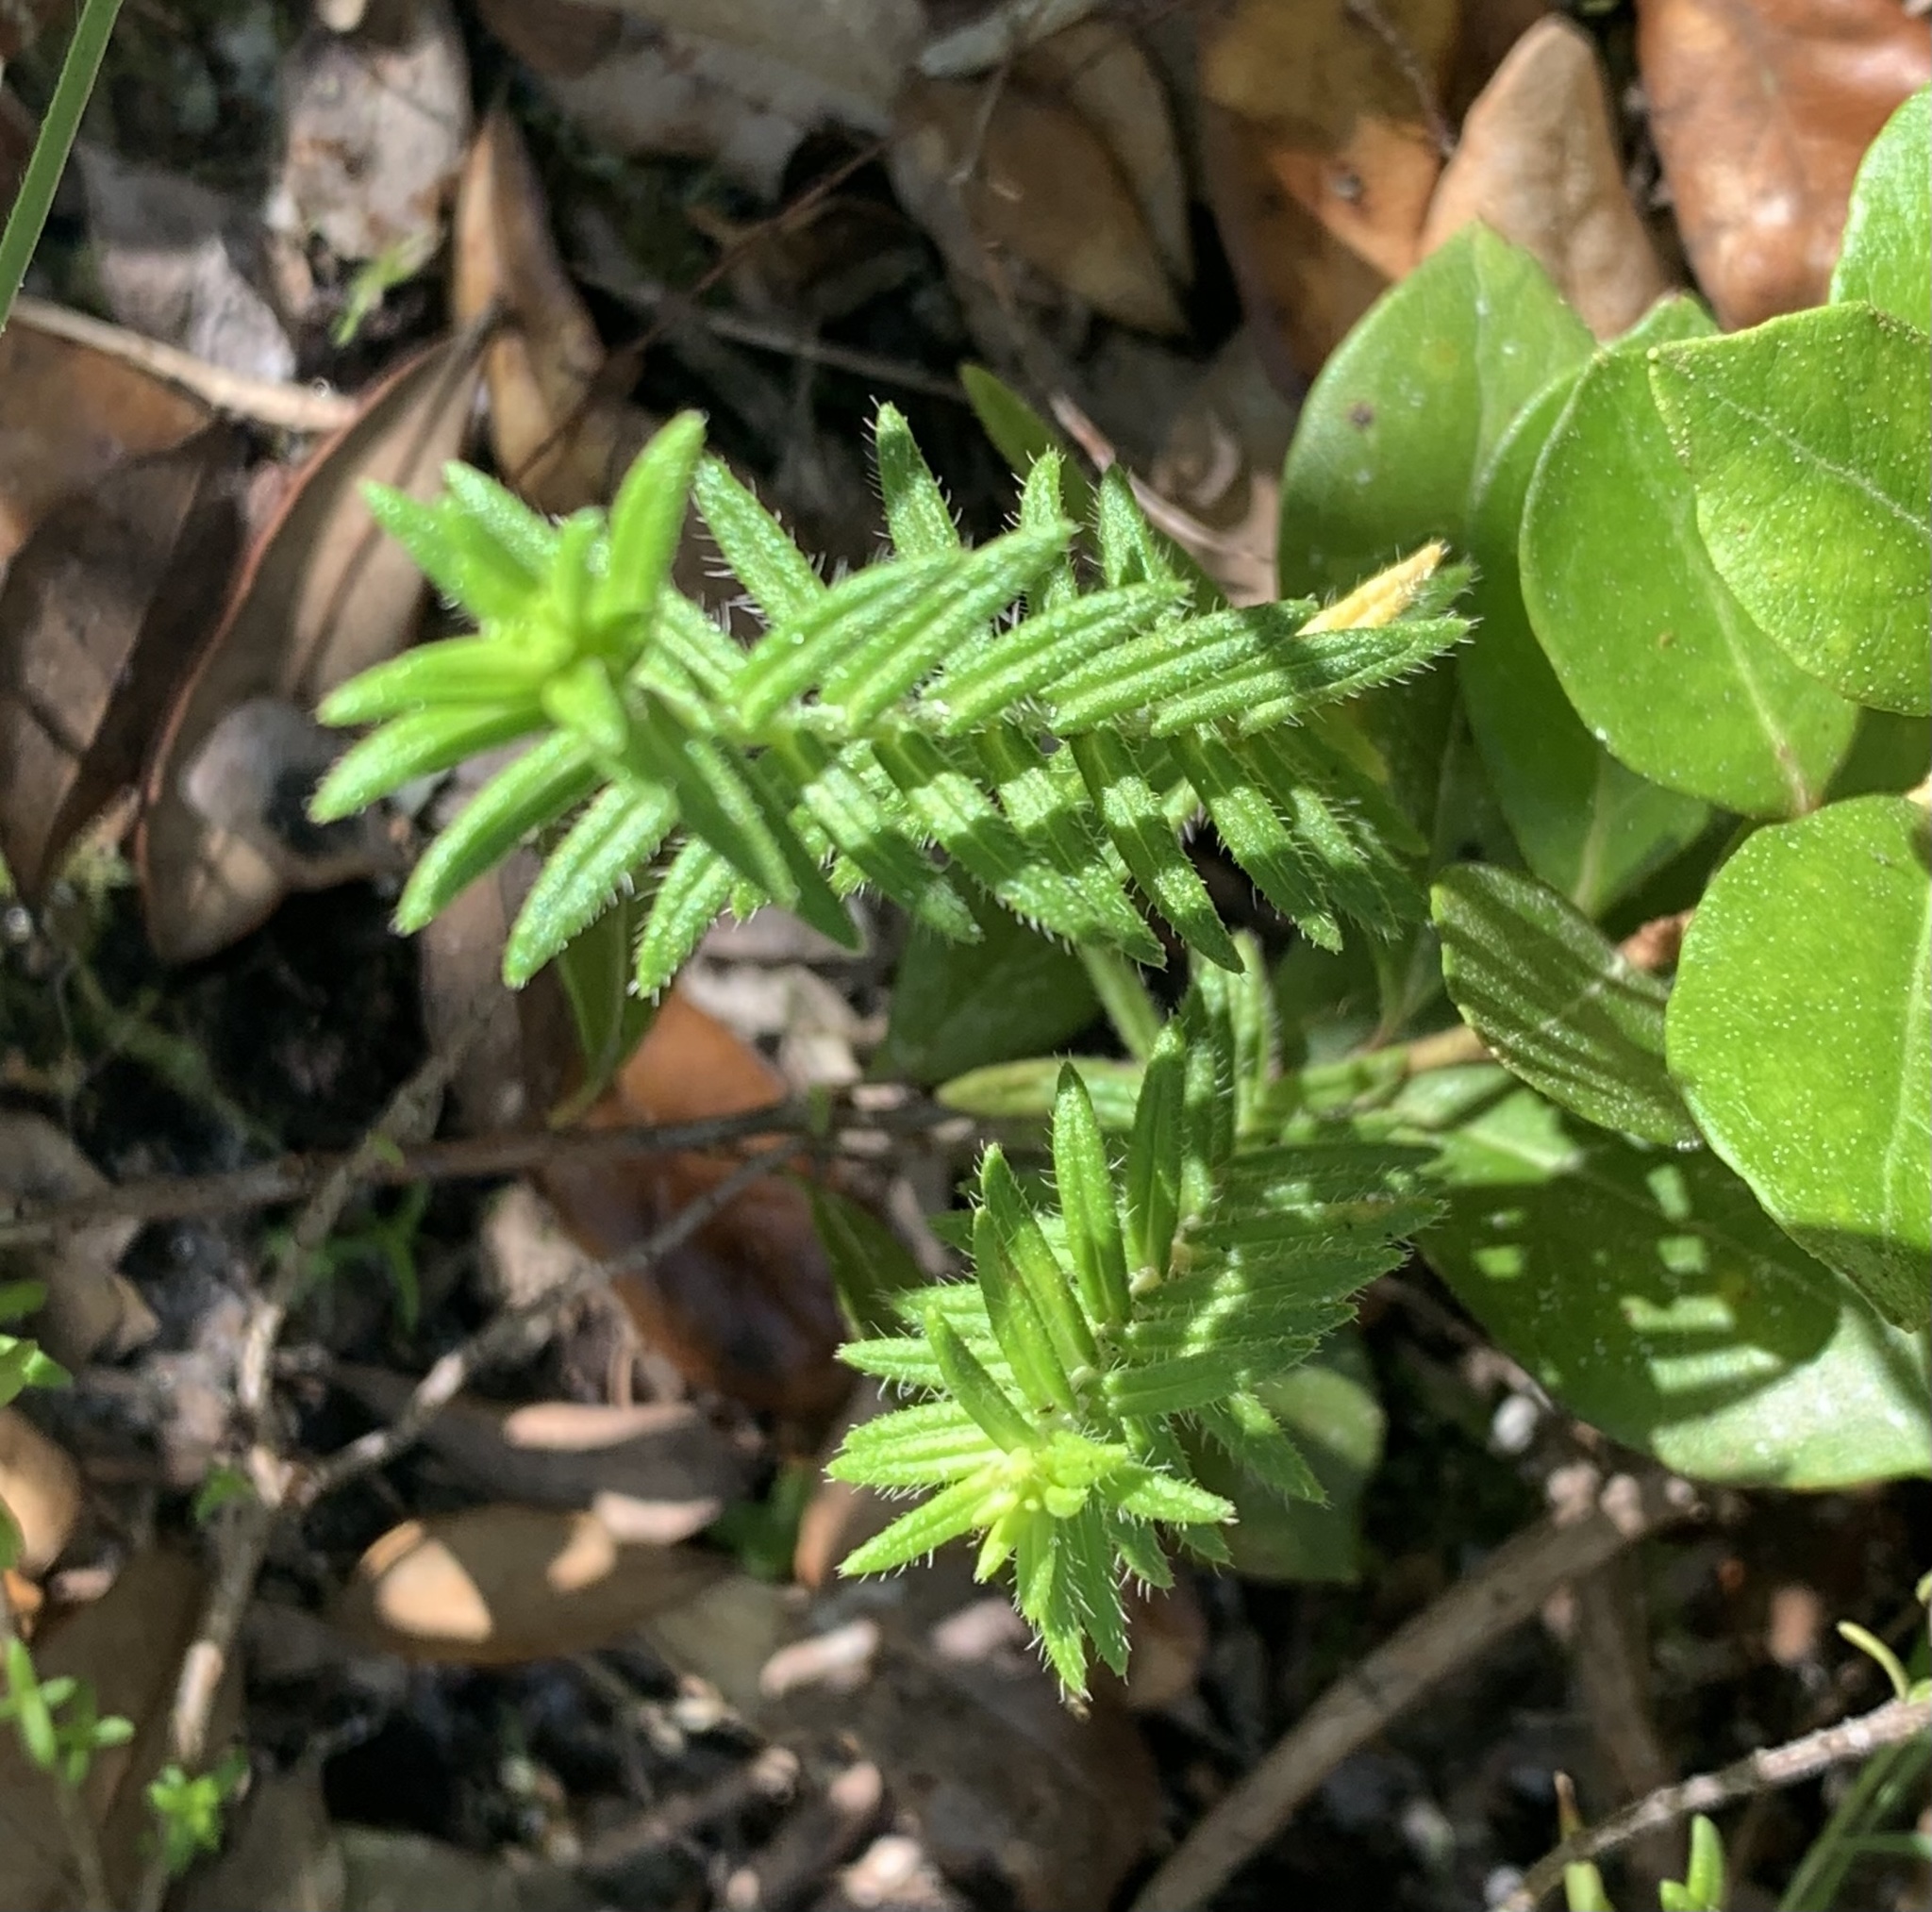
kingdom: Plantae
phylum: Tracheophyta
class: Magnoliopsida
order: Lamiales
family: Lamiaceae
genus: Piloblephis
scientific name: Piloblephis rigida
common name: Wild pennyroyal
